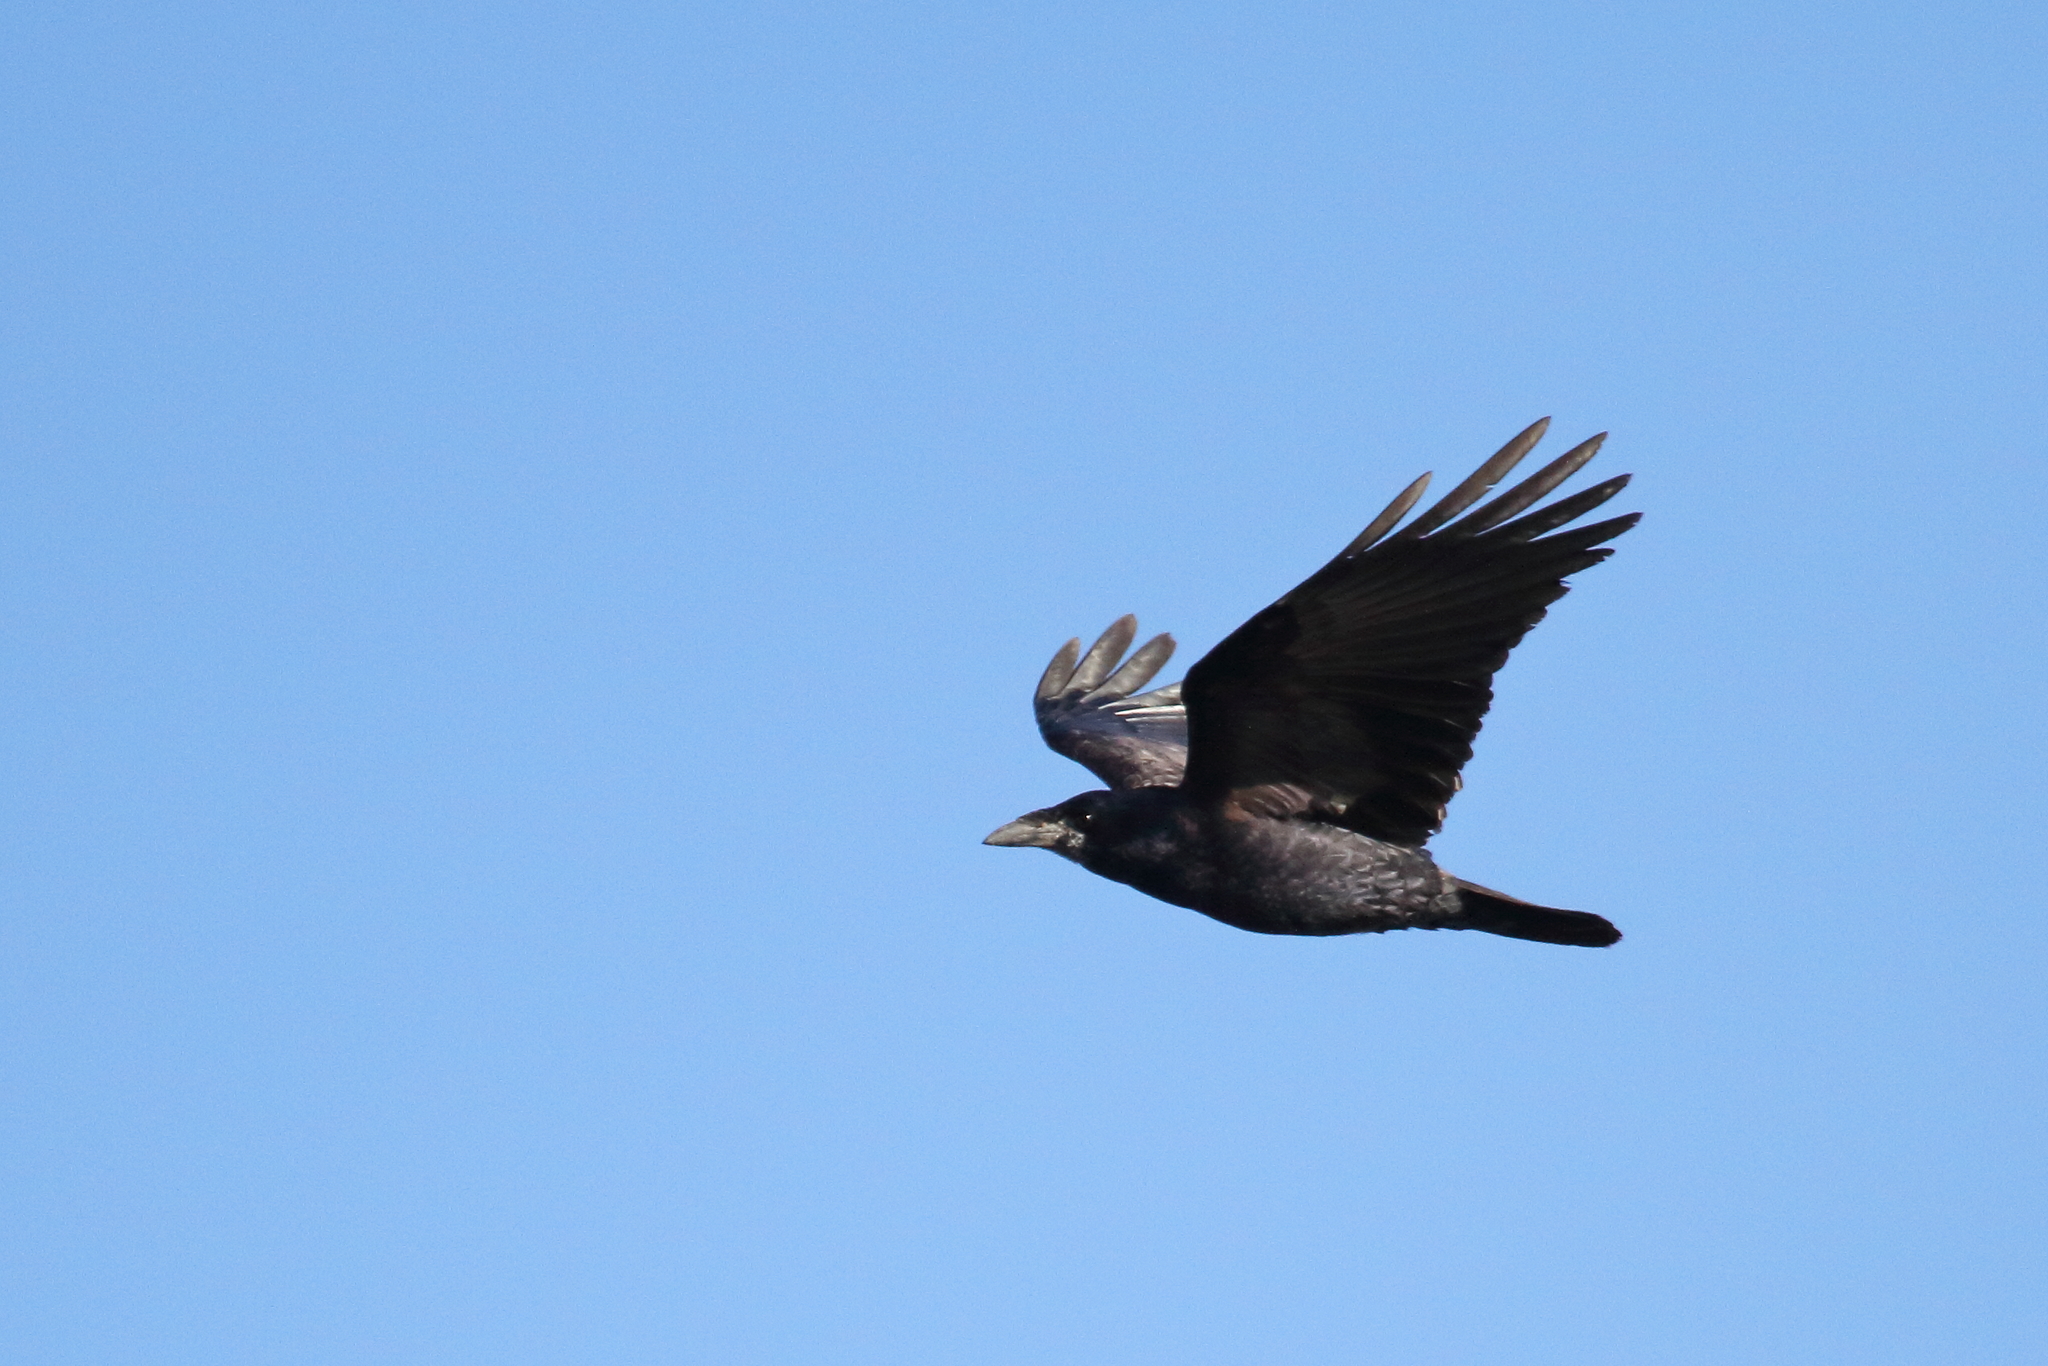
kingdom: Animalia
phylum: Chordata
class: Aves
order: Passeriformes
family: Corvidae
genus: Corvus
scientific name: Corvus frugilegus
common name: Rook
